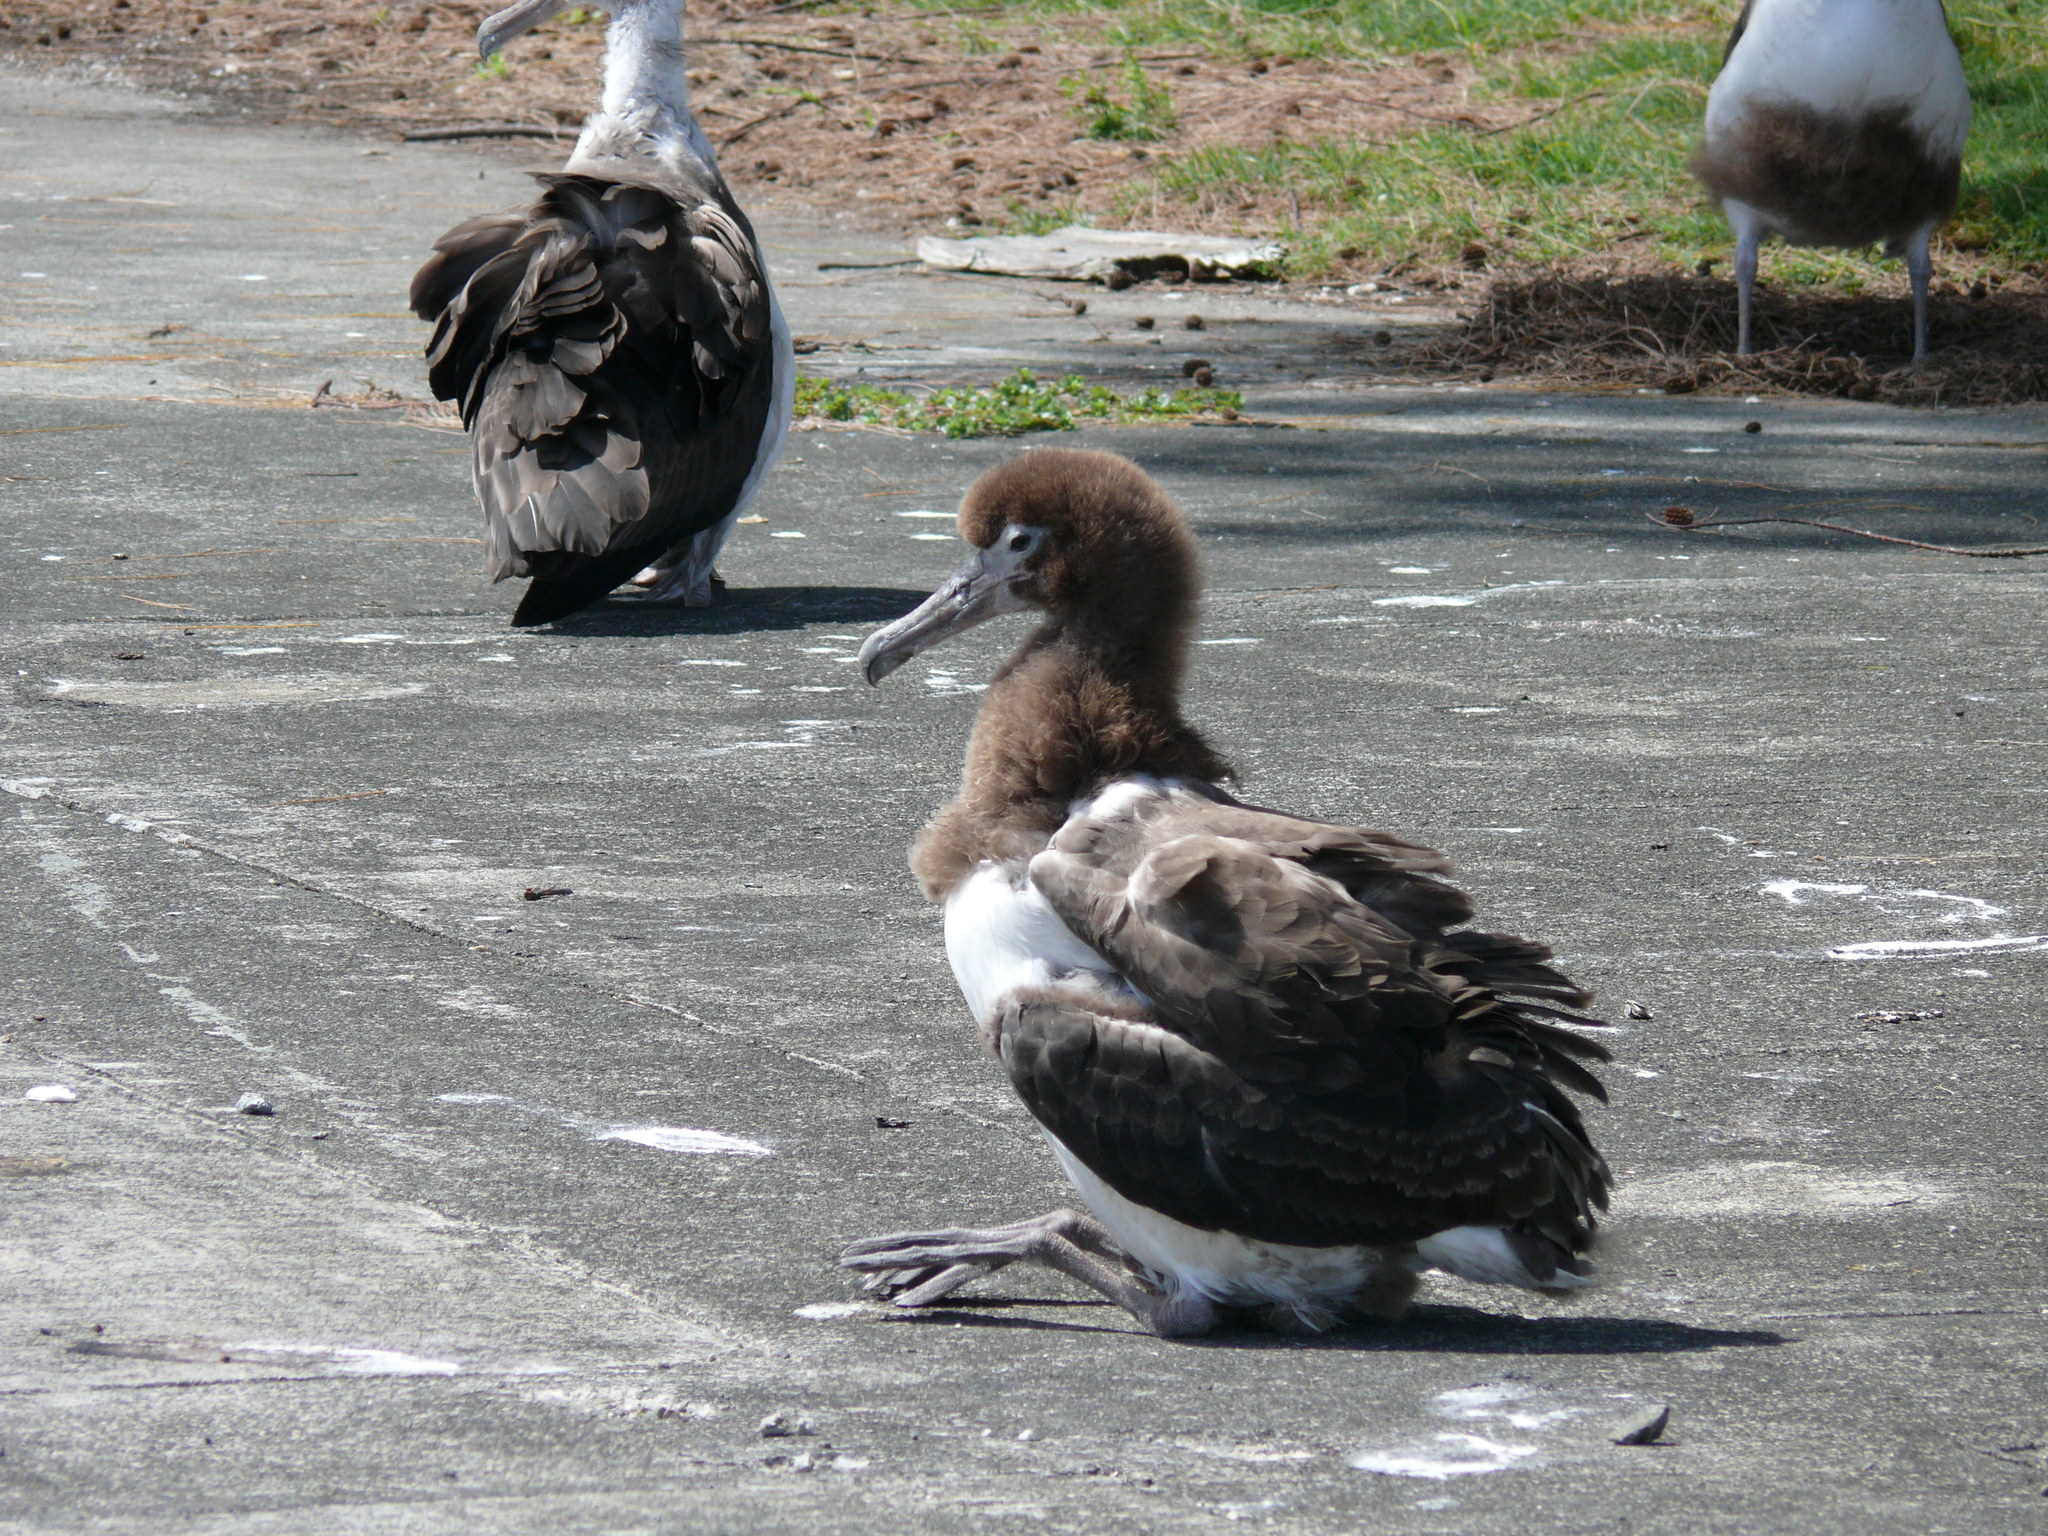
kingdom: Animalia
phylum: Chordata
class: Aves
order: Procellariiformes
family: Diomedeidae
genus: Phoebastria
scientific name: Phoebastria immutabilis
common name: Laysan albatross
